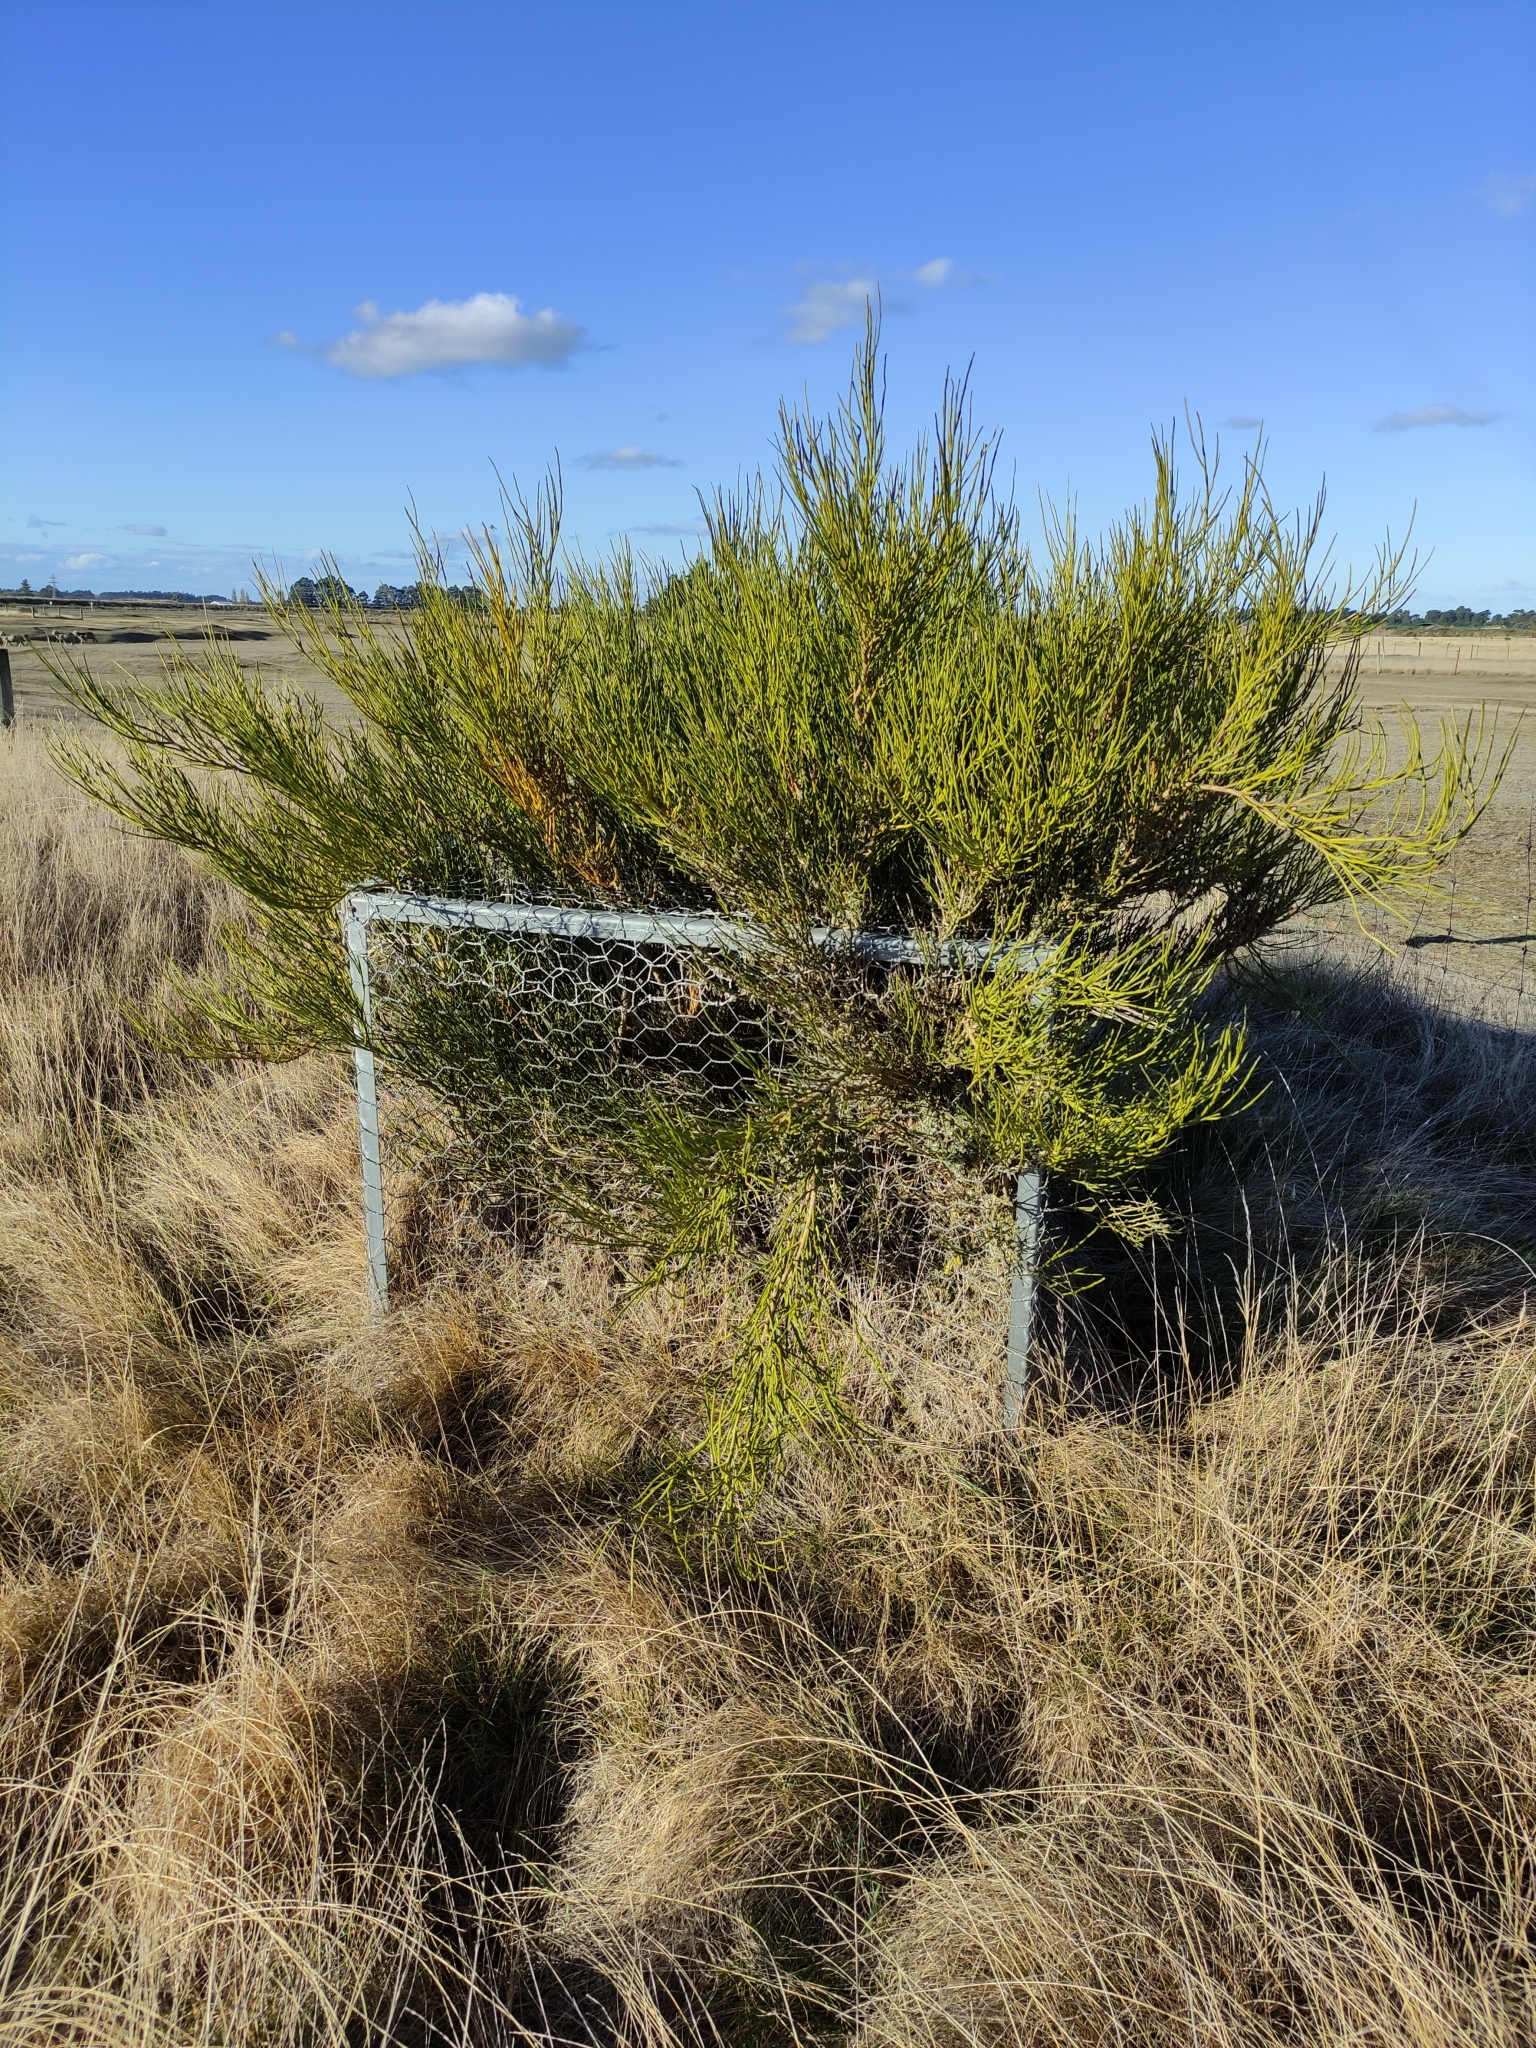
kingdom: Plantae
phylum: Tracheophyta
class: Magnoliopsida
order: Fabales
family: Fabaceae
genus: Carmichaelia
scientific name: Carmichaelia australis
